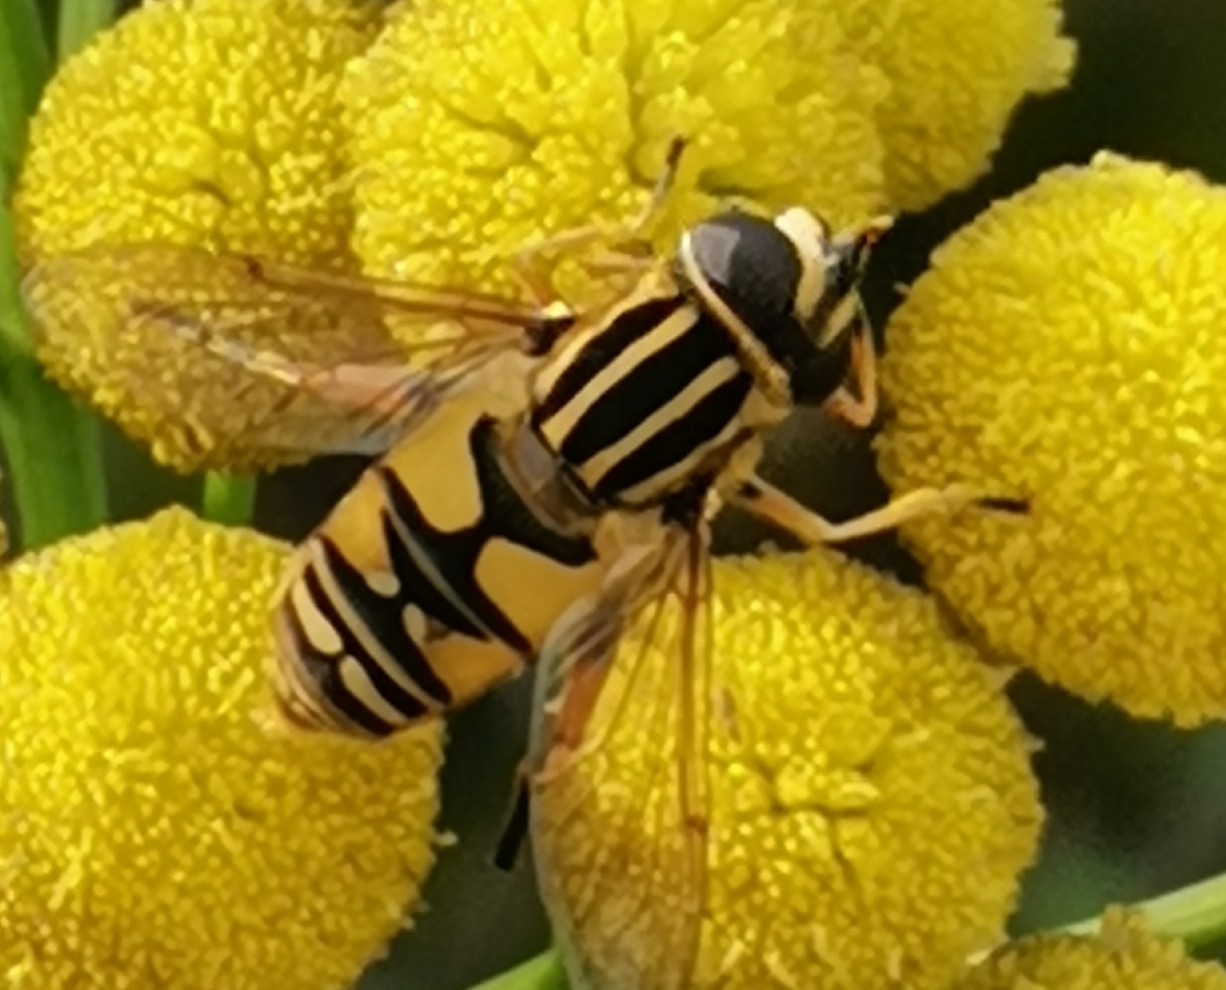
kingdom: Animalia
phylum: Arthropoda
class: Insecta
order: Diptera
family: Syrphidae
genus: Helophilus
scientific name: Helophilus pendulus
